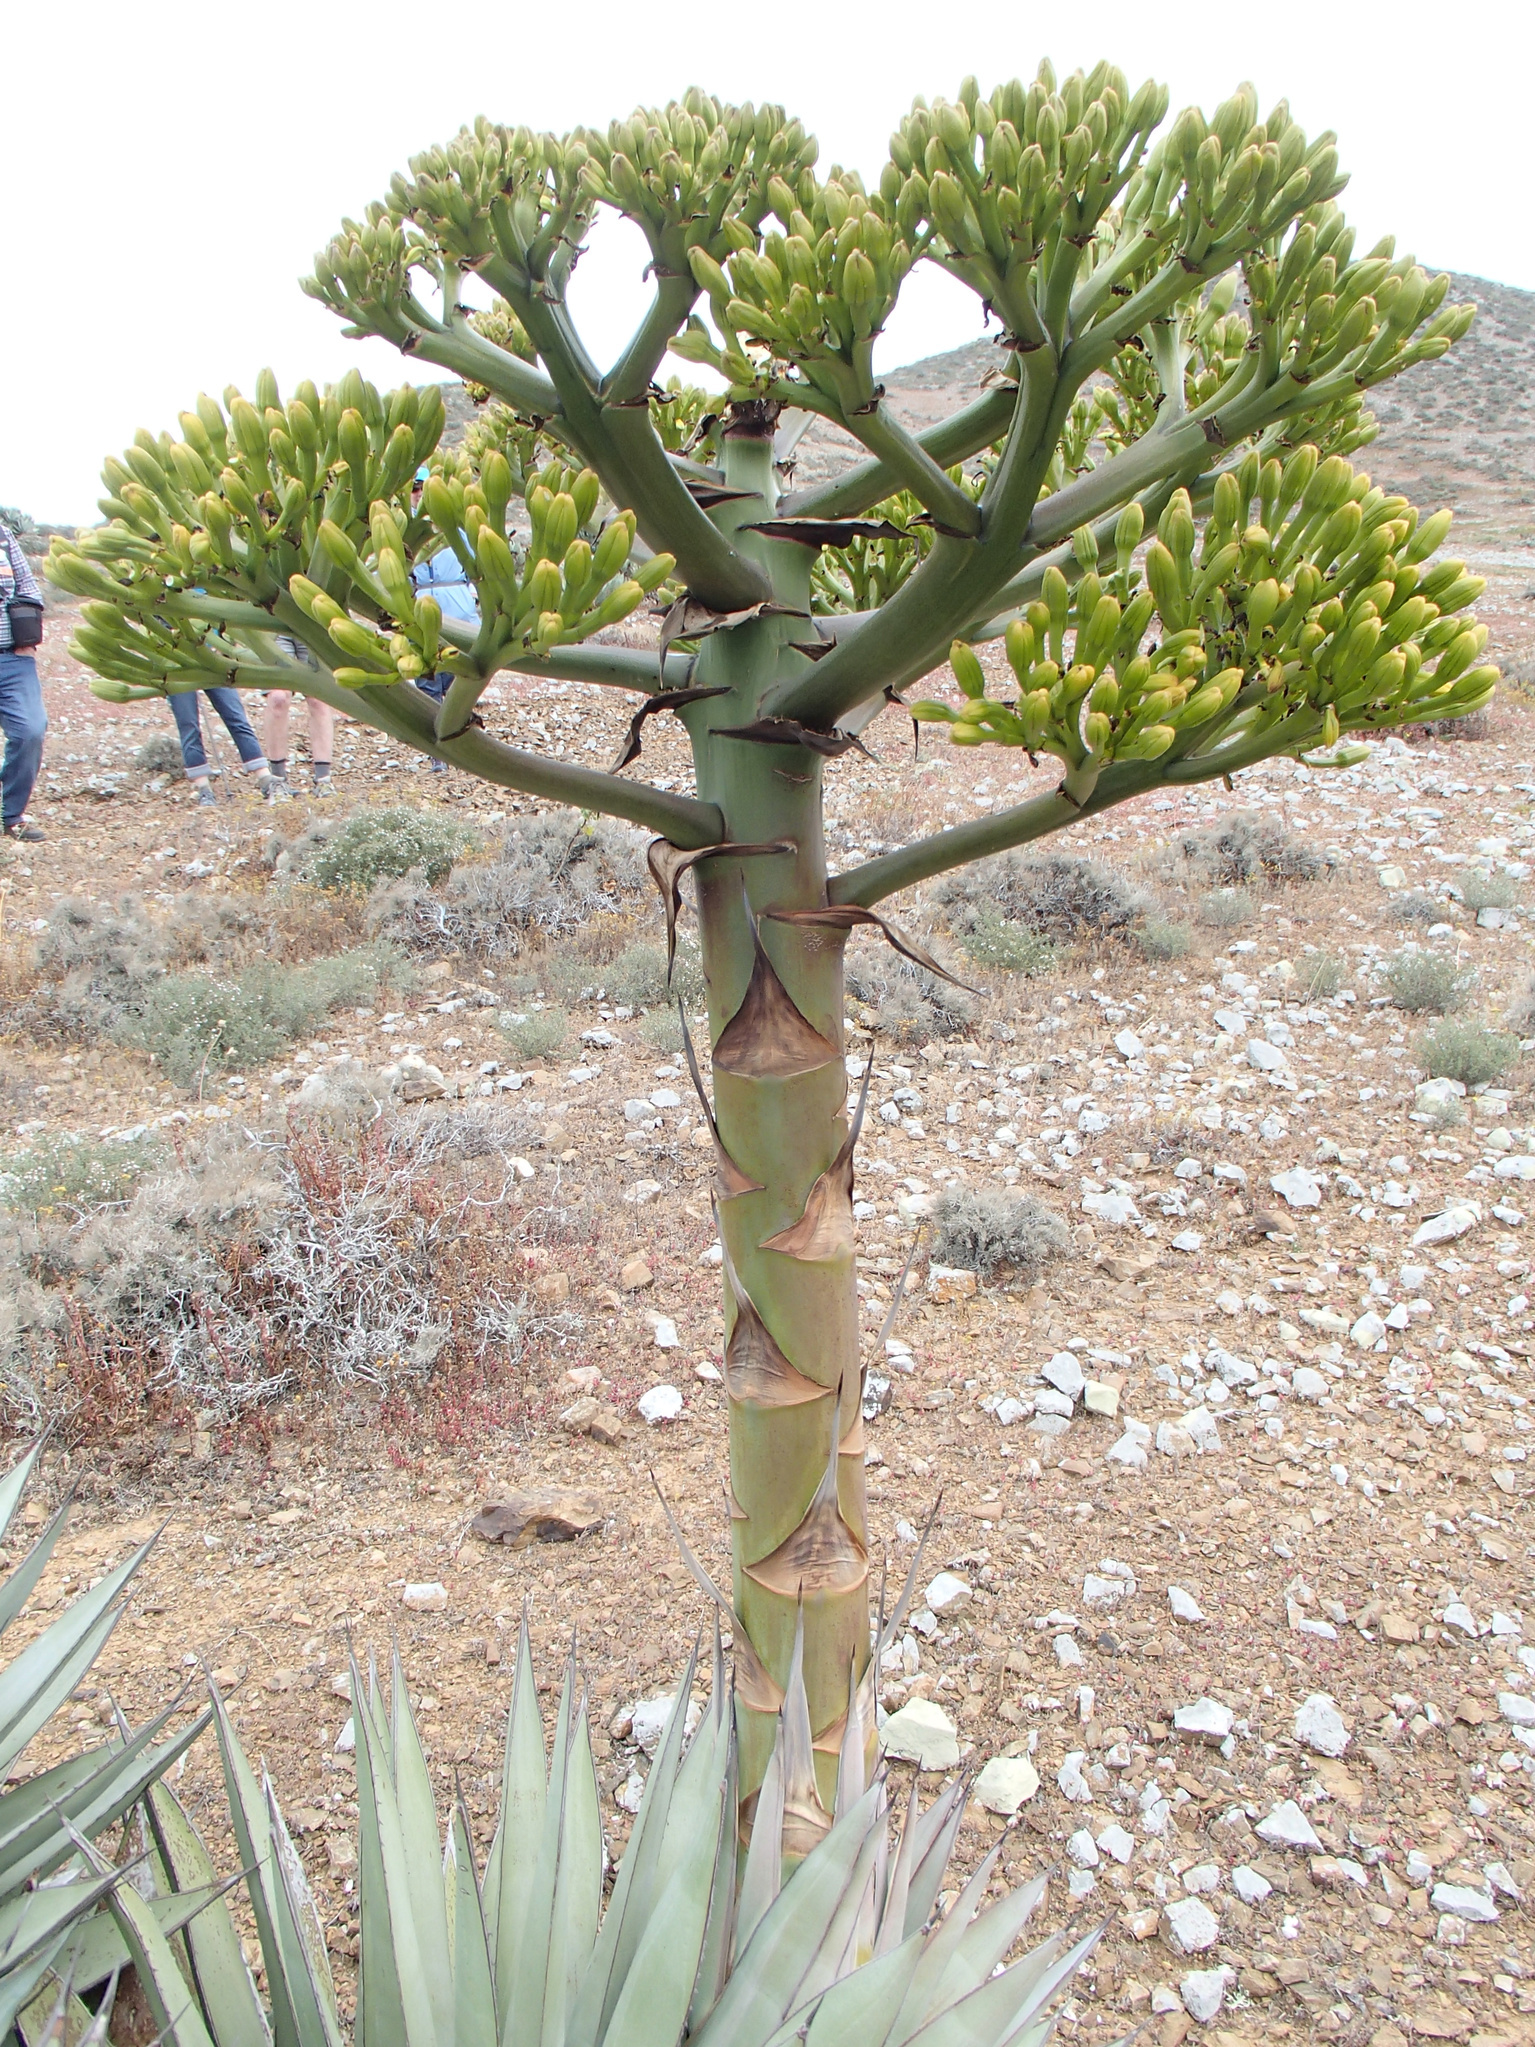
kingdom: Plantae
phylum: Tracheophyta
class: Liliopsida
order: Asparagales
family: Asparagaceae
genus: Agave
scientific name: Agave sebastiana
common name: Cedros agave
